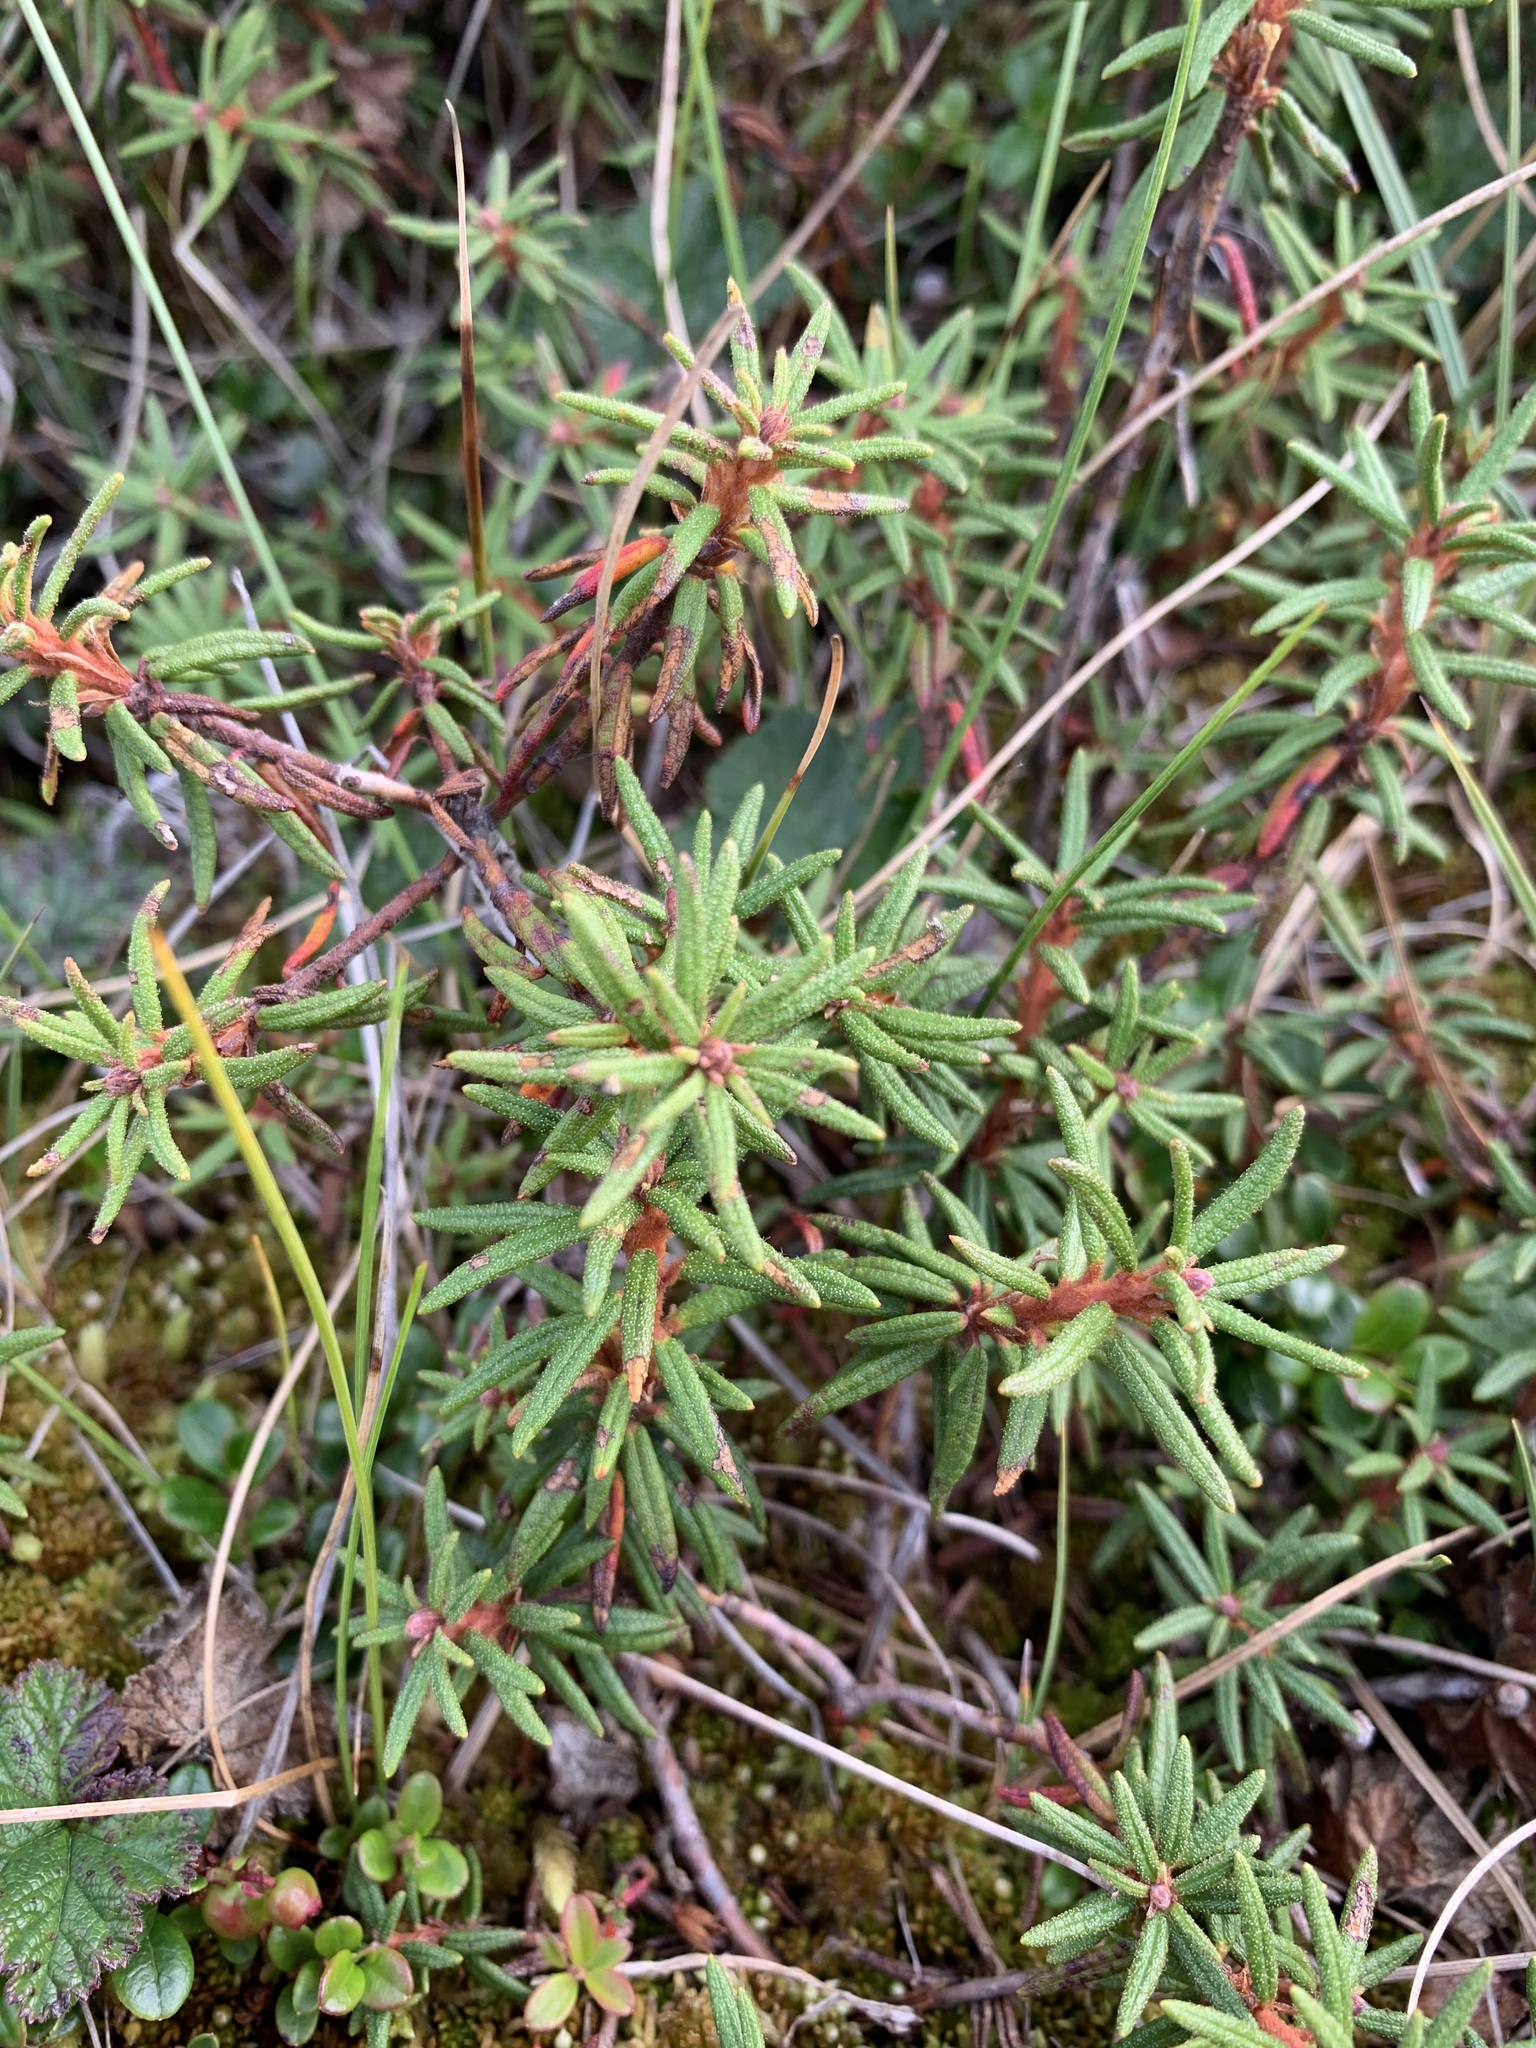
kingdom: Plantae
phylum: Tracheophyta
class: Magnoliopsida
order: Ericales
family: Ericaceae
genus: Rhododendron
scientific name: Rhododendron tomentosum
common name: Marsh labrador tea
